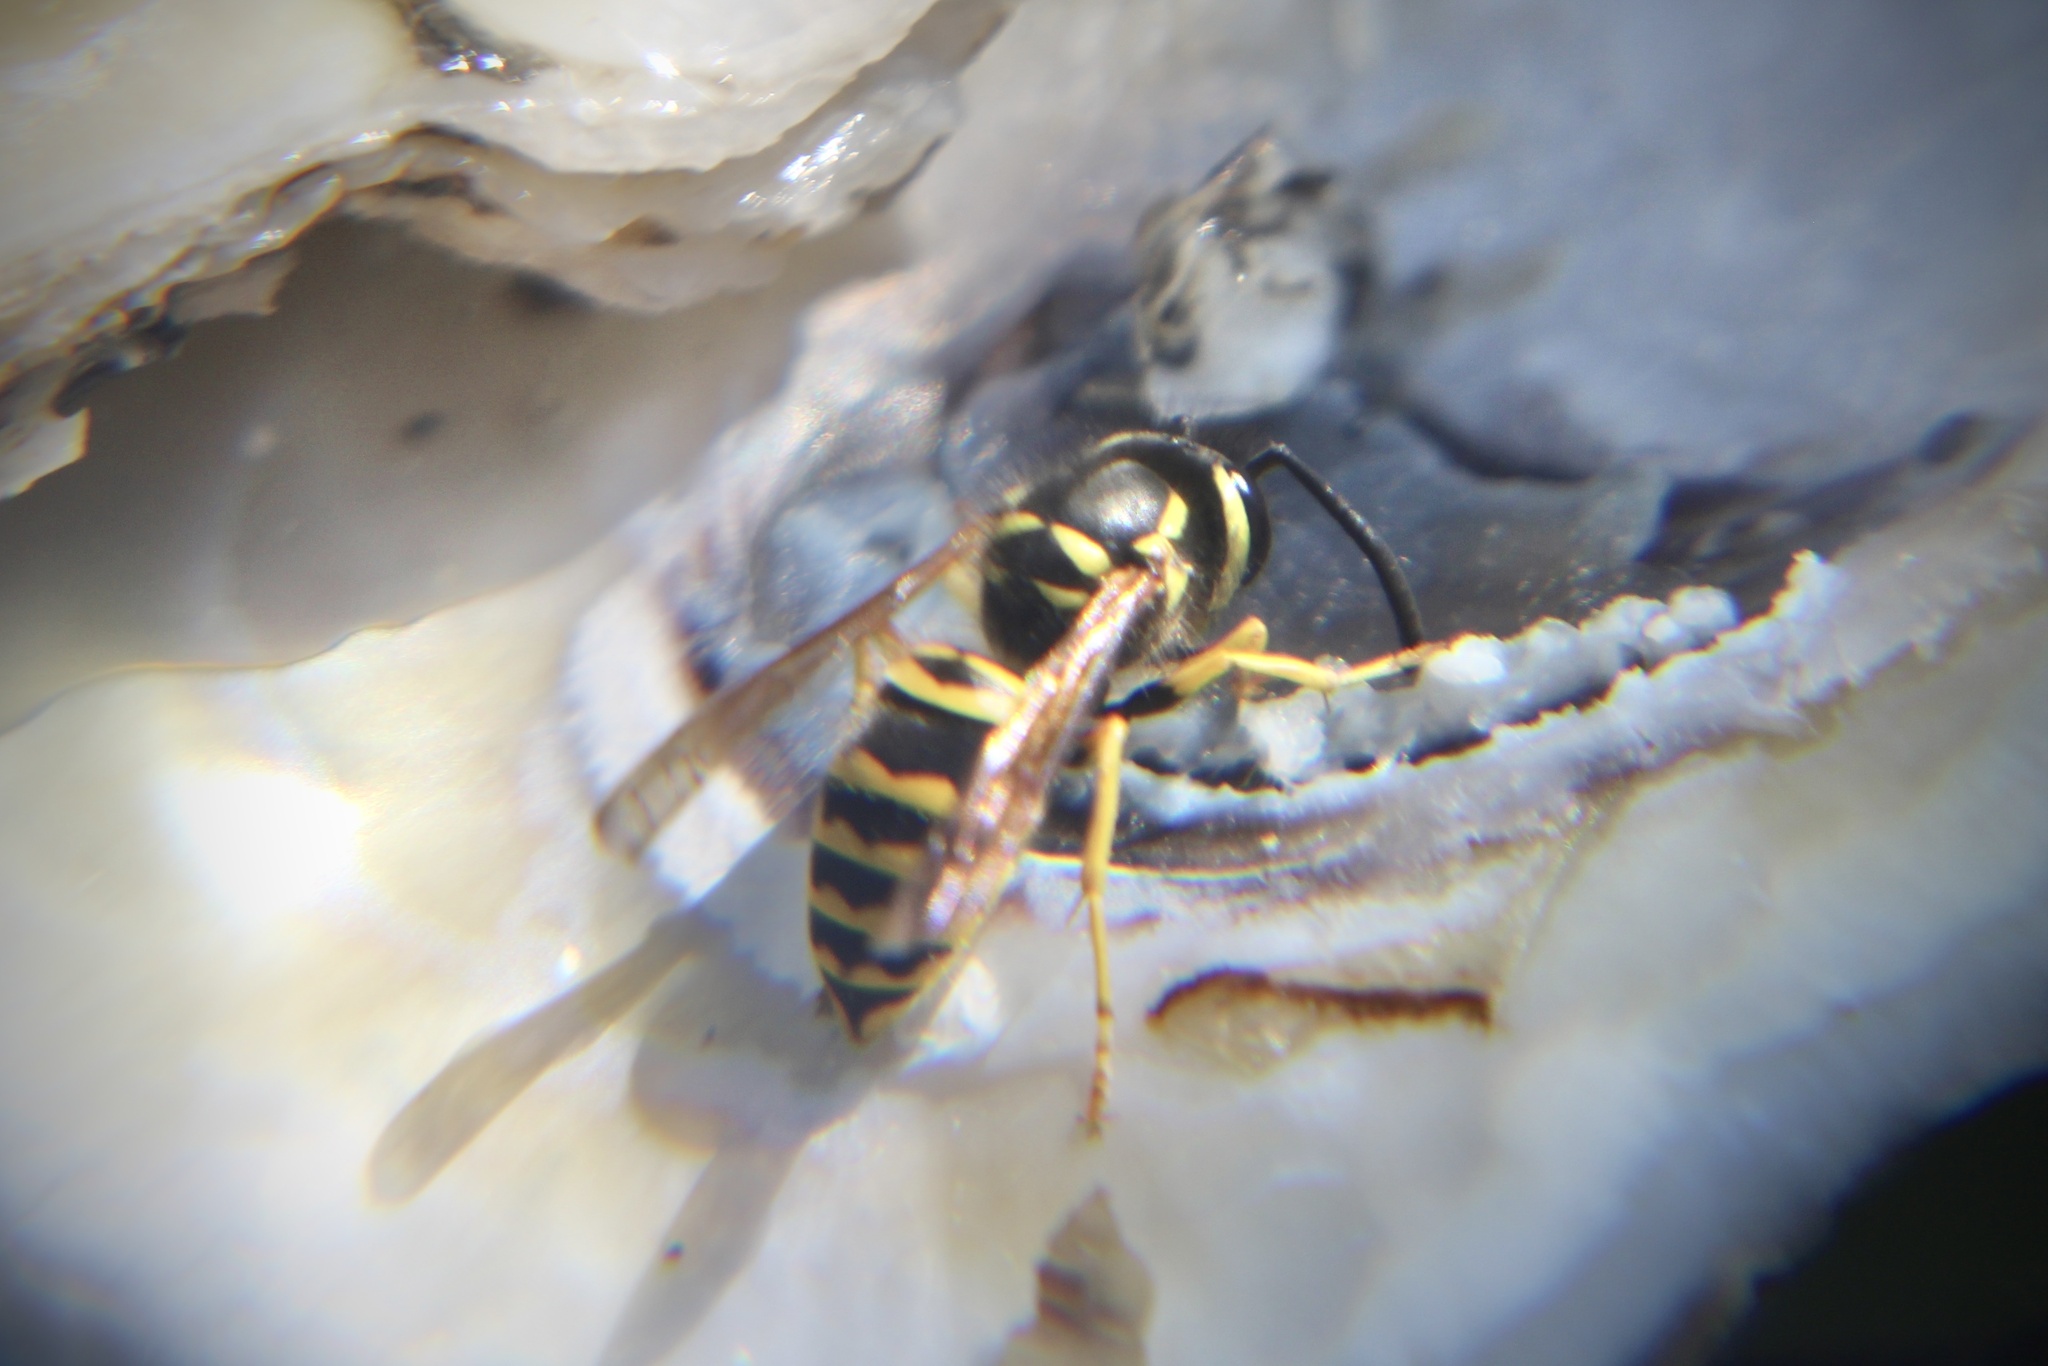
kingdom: Animalia
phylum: Arthropoda
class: Insecta
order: Hymenoptera
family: Vespidae
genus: Vespula
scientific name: Vespula maculifrons
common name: Eastern yellowjacket
